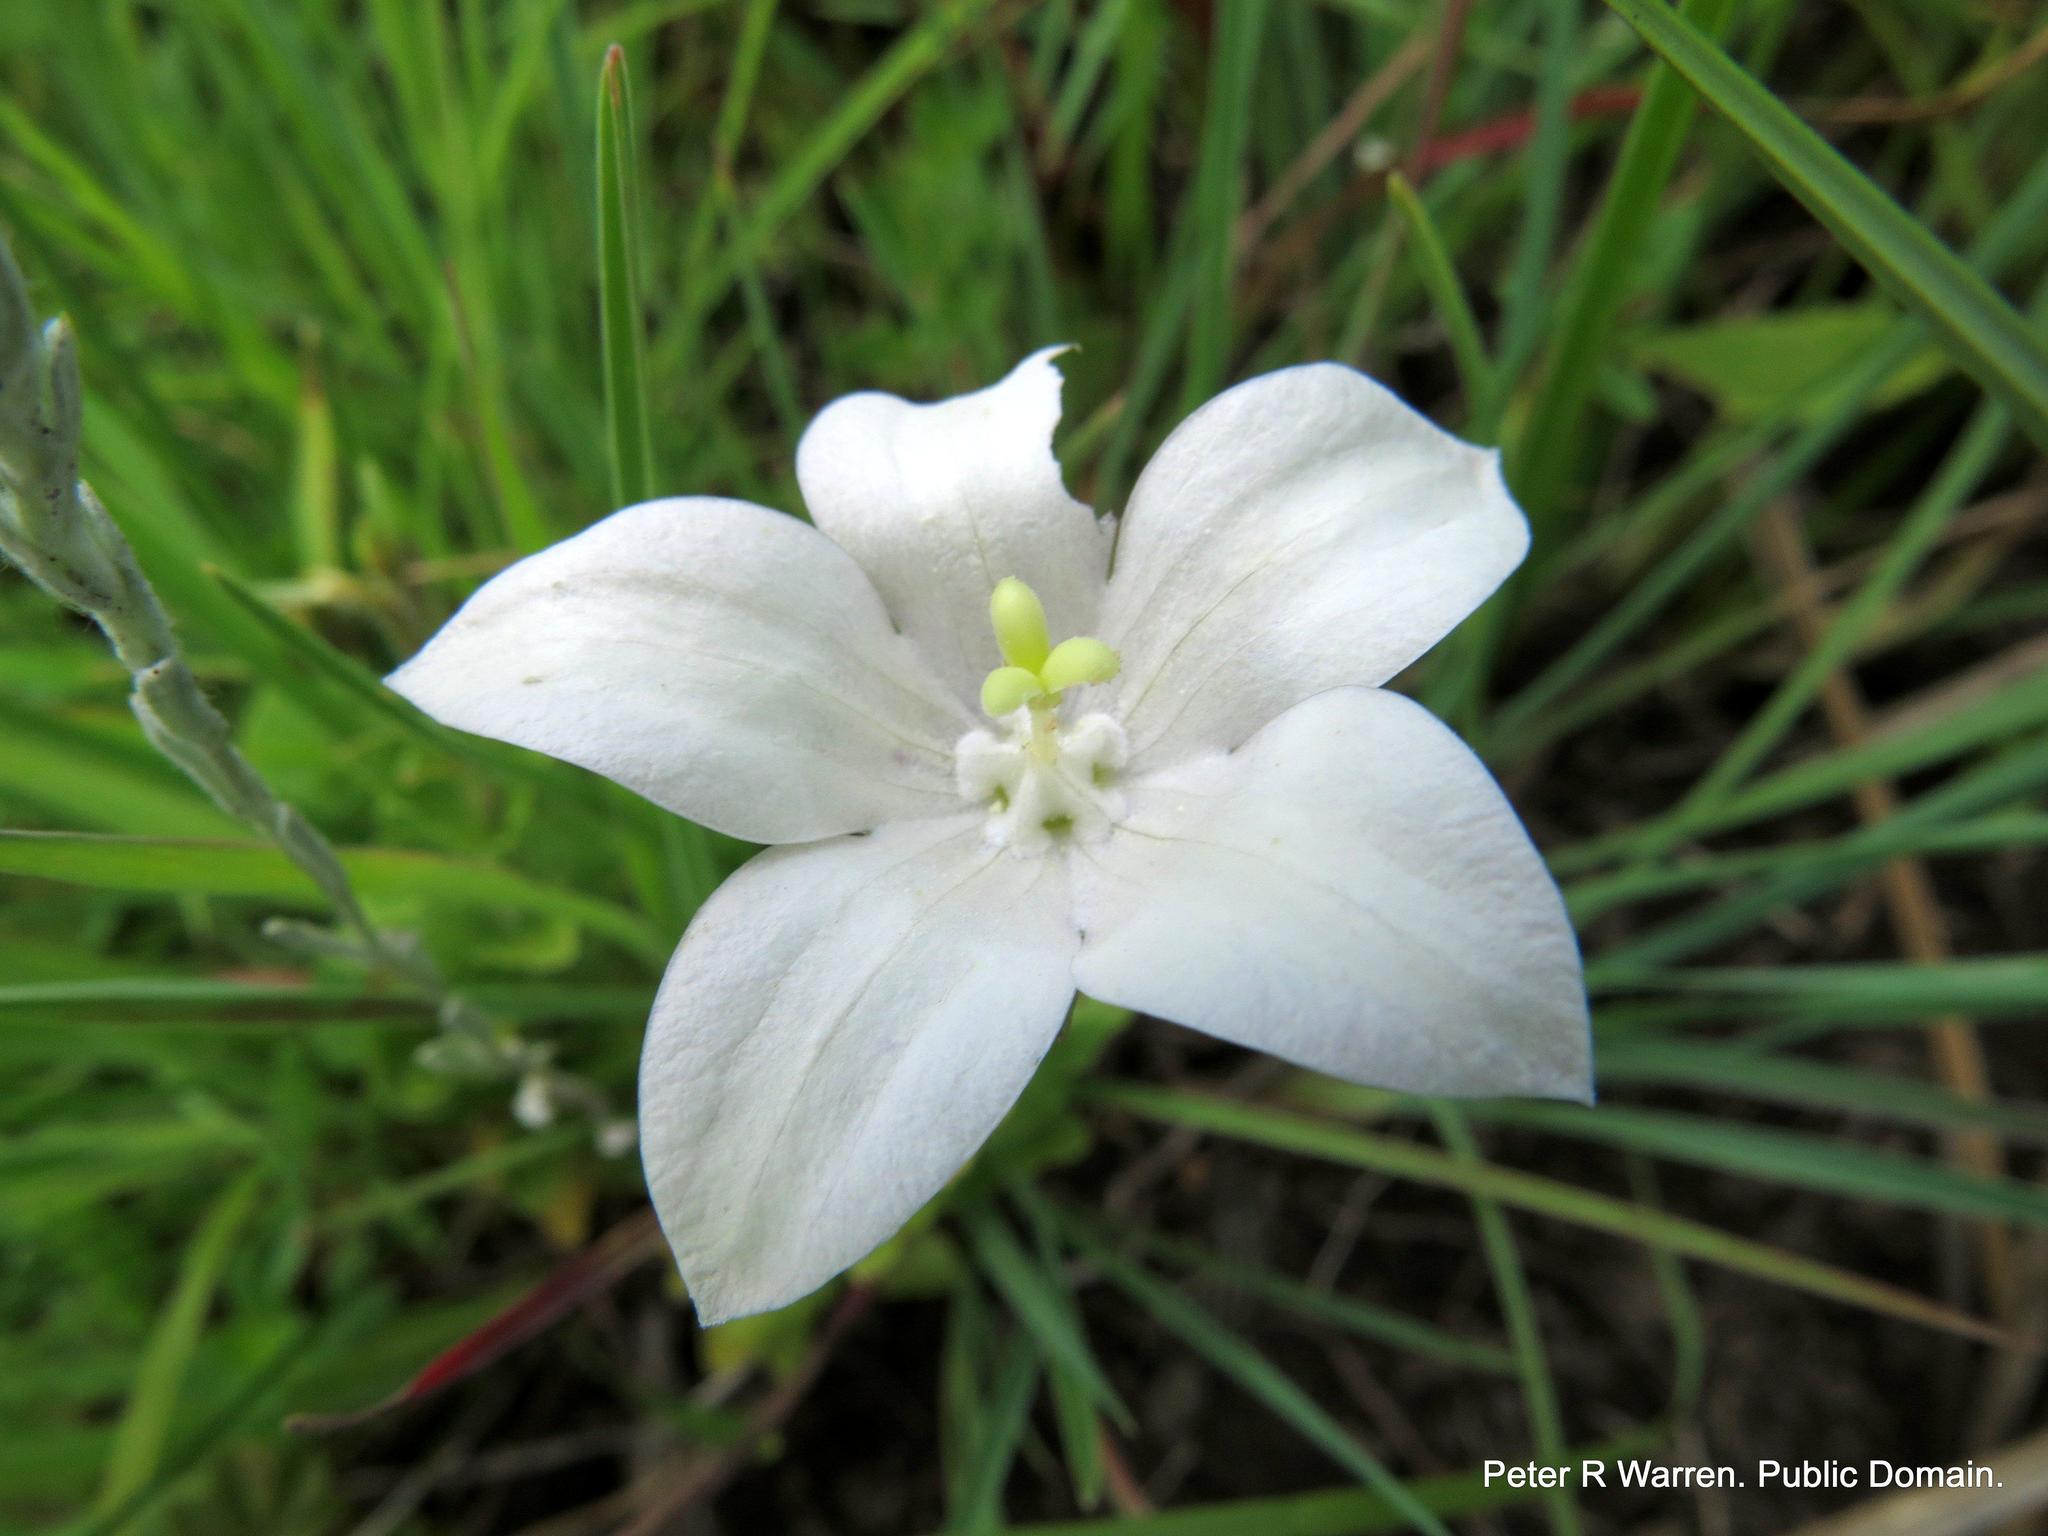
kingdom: Plantae
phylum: Tracheophyta
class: Magnoliopsida
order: Asterales
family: Campanulaceae
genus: Wahlenbergia
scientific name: Wahlenbergia rivularis
